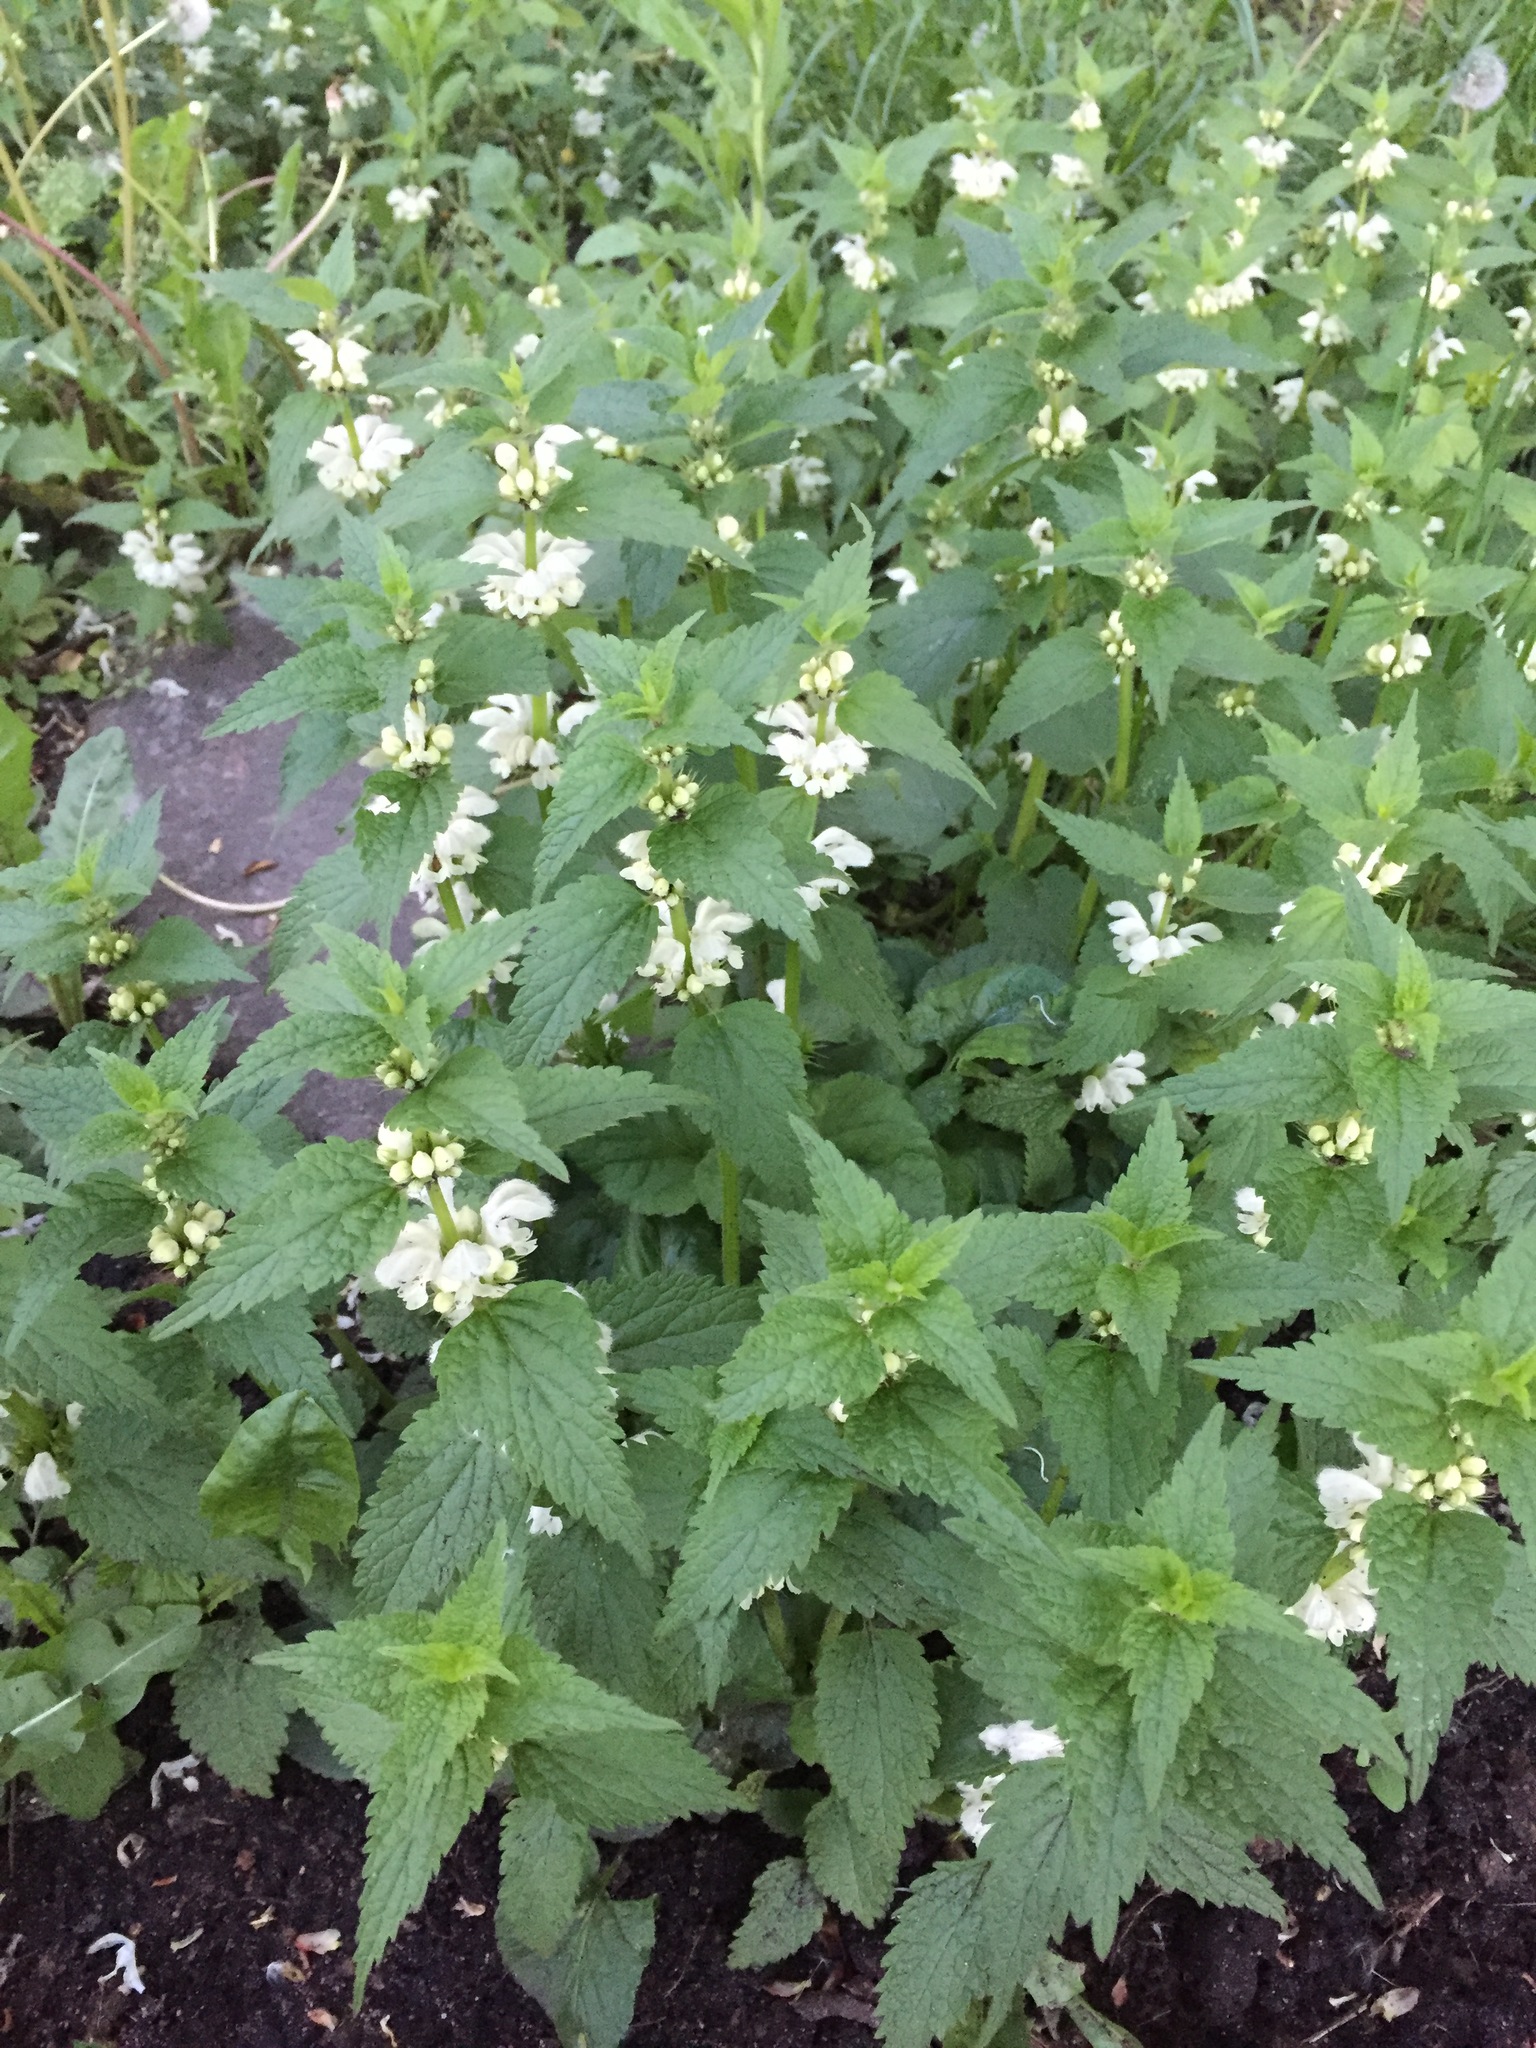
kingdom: Plantae
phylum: Tracheophyta
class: Magnoliopsida
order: Lamiales
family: Lamiaceae
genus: Lamium
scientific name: Lamium album
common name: White dead-nettle
